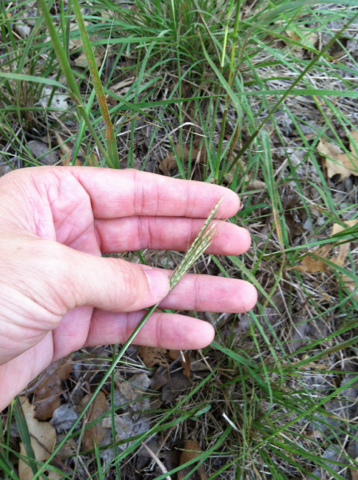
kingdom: Plantae
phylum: Tracheophyta
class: Liliopsida
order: Poales
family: Poaceae
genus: Bothriochloa
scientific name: Bothriochloa ischaemum
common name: Yellow bluestem
